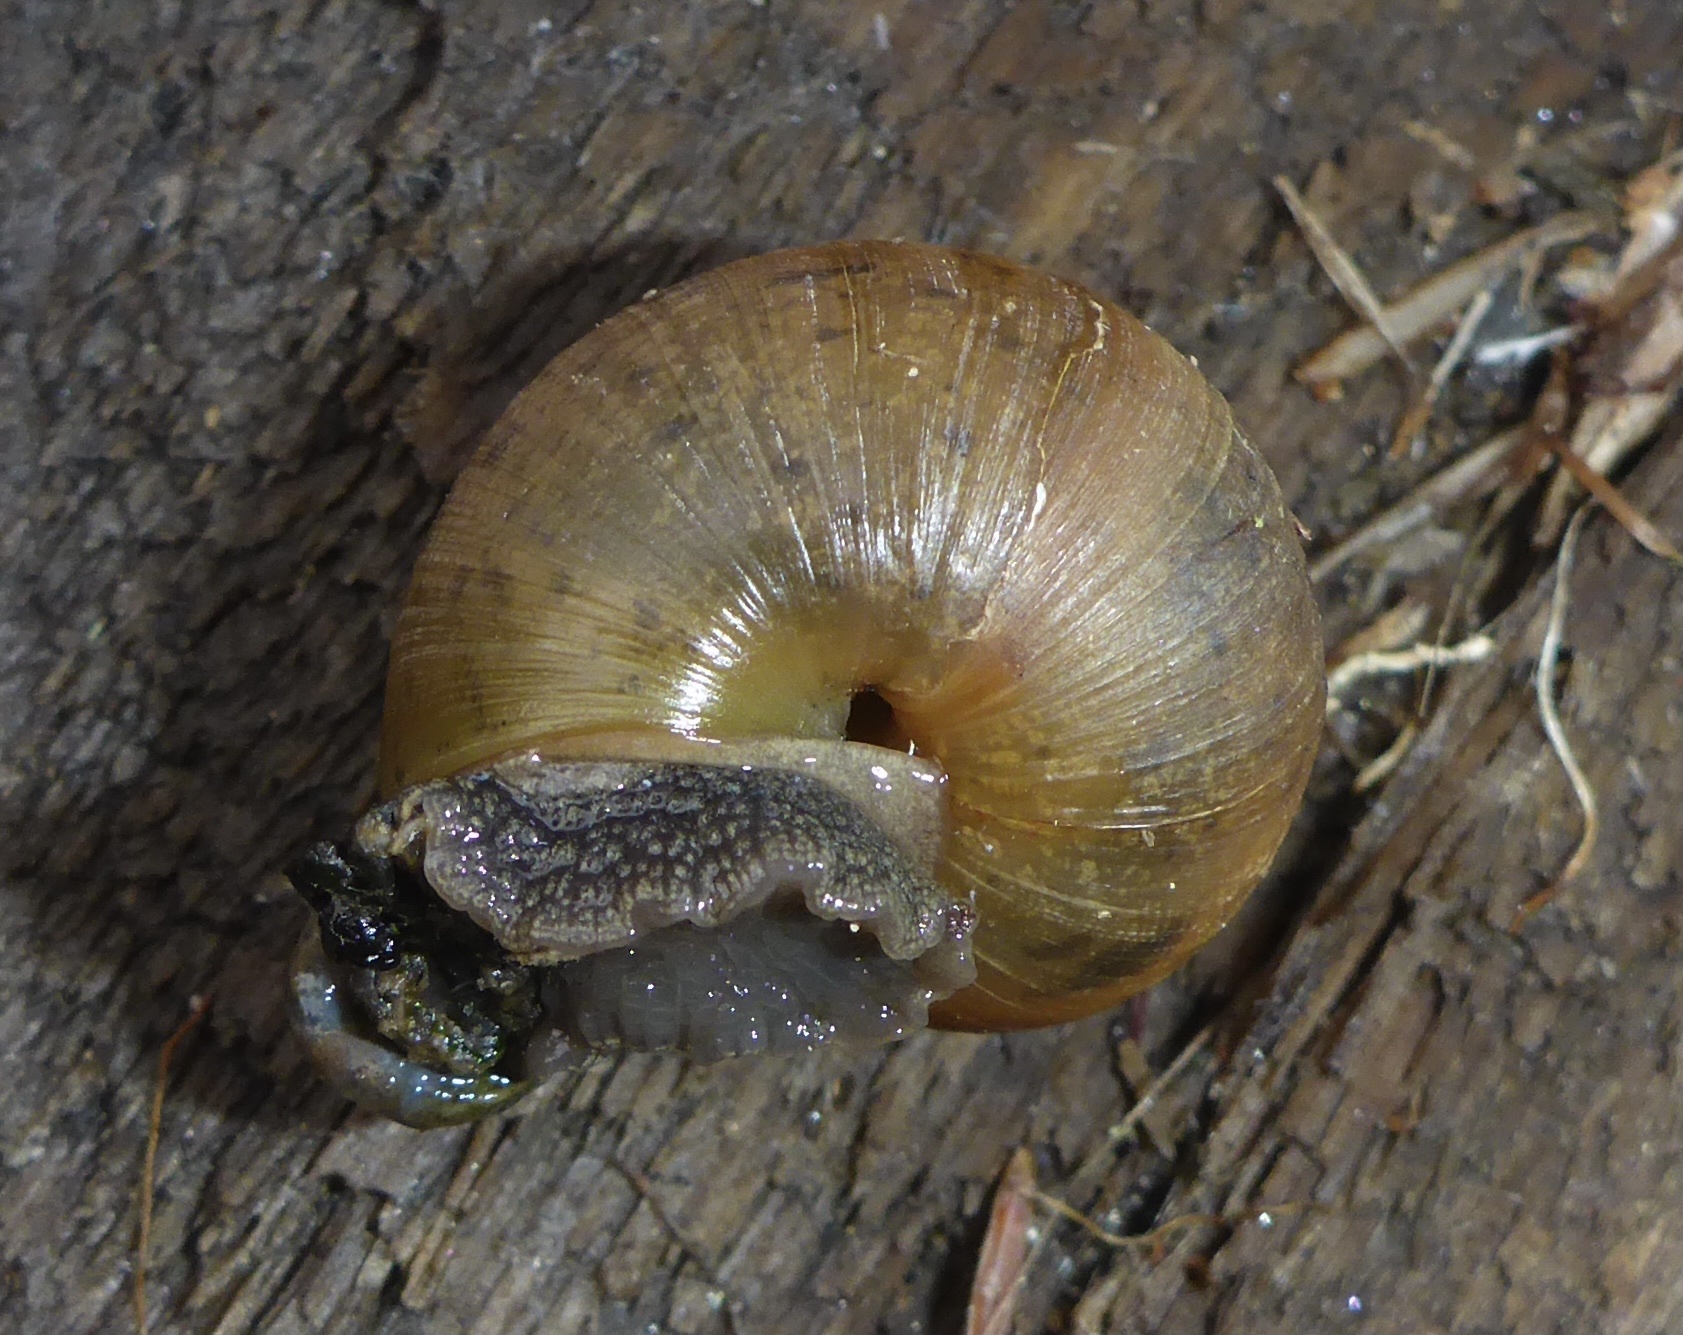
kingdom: Animalia
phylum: Mollusca
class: Gastropoda
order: Stylommatophora
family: Xanthonychidae
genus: Helminthoglypta
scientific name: Helminthoglypta nickliniana
